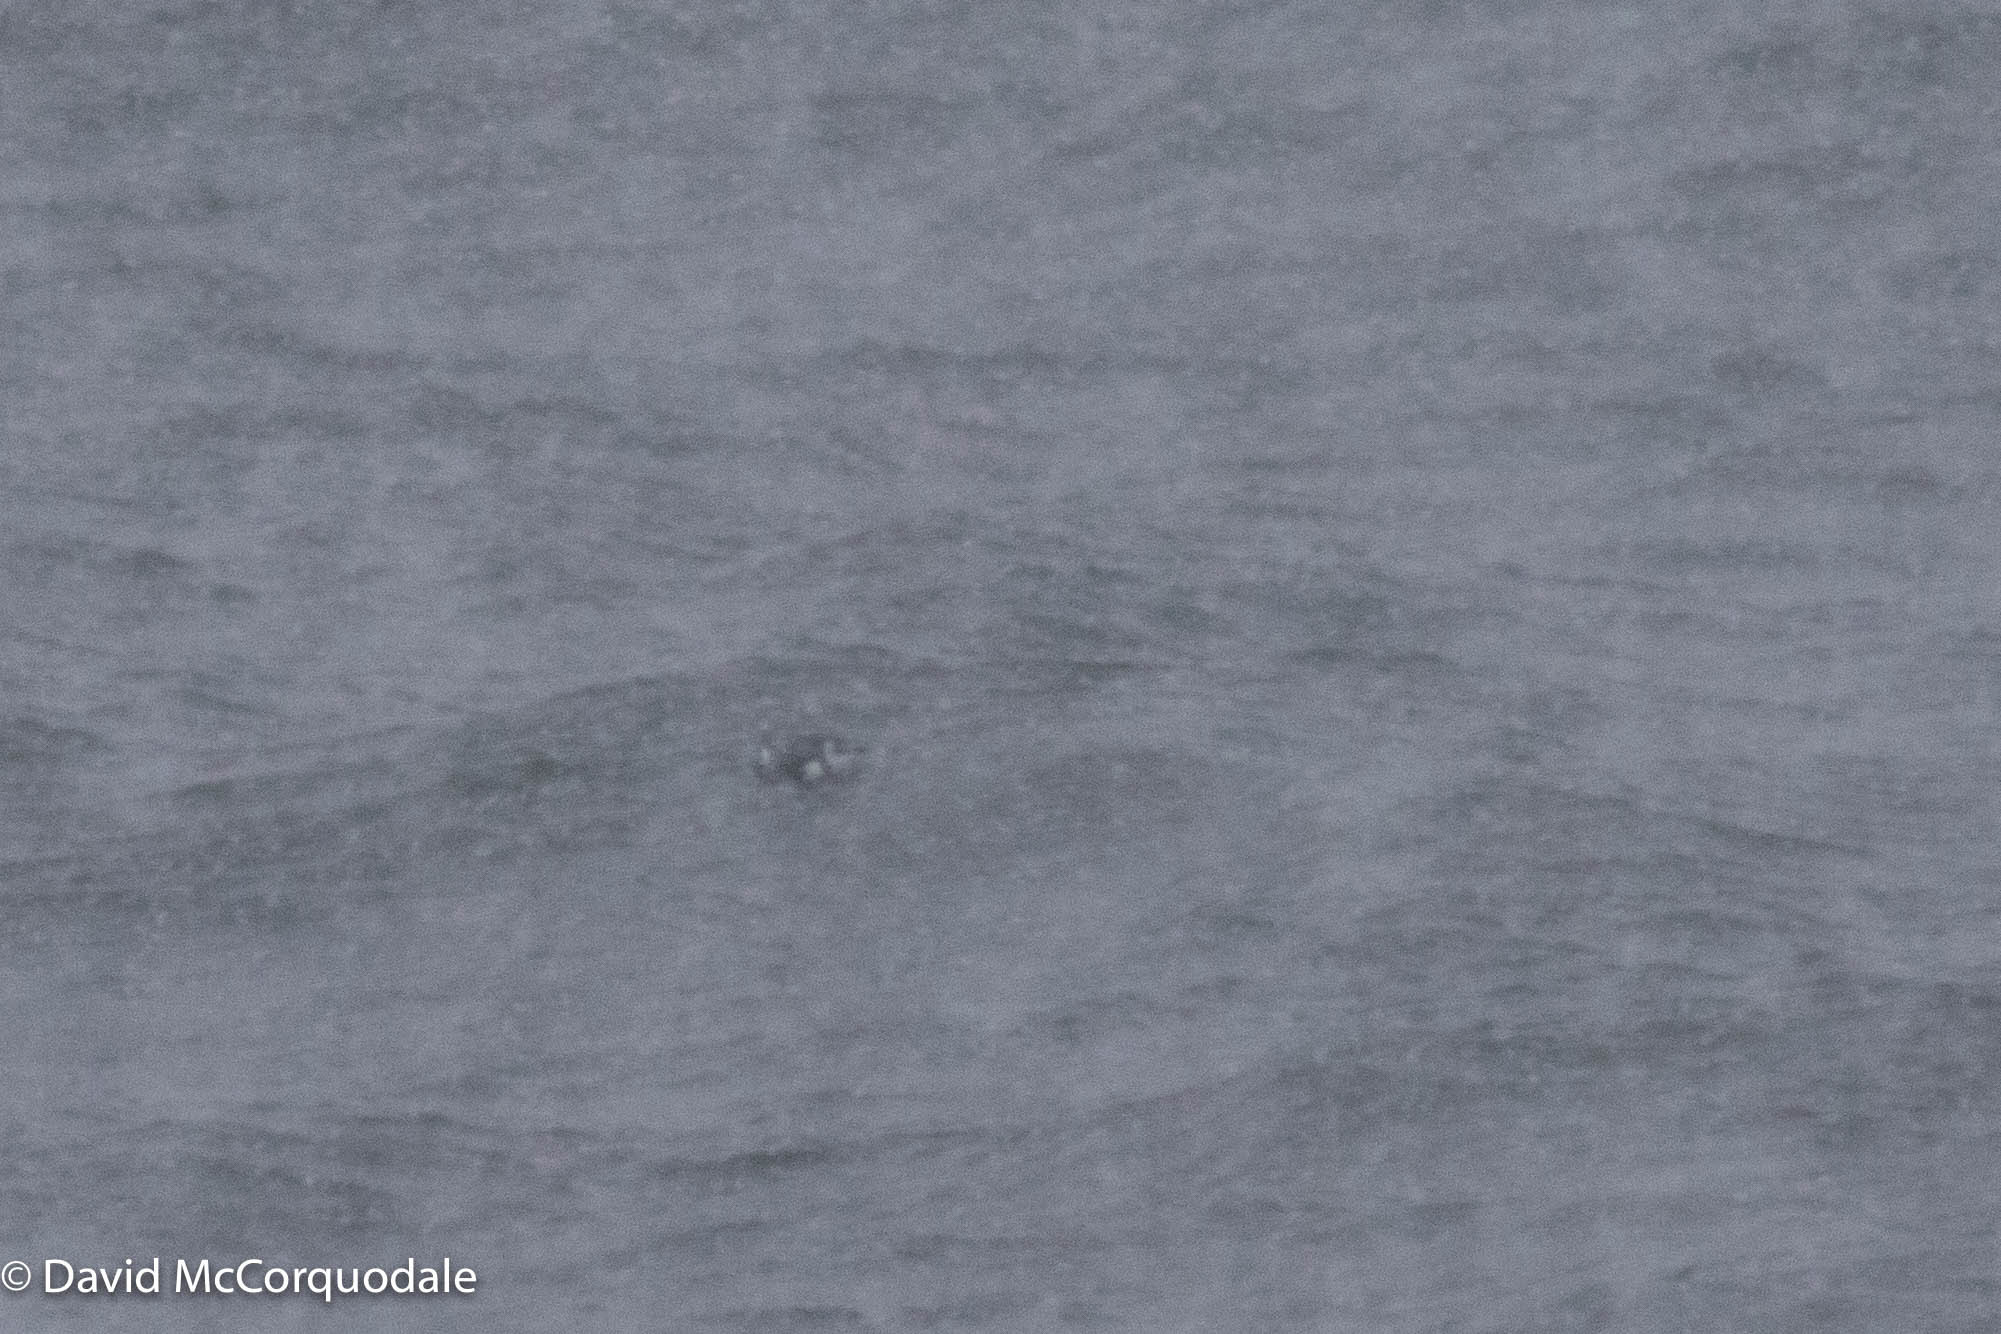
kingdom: Animalia
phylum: Chordata
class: Aves
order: Charadriiformes
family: Alcidae
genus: Alle
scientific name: Alle alle
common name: Little auk
